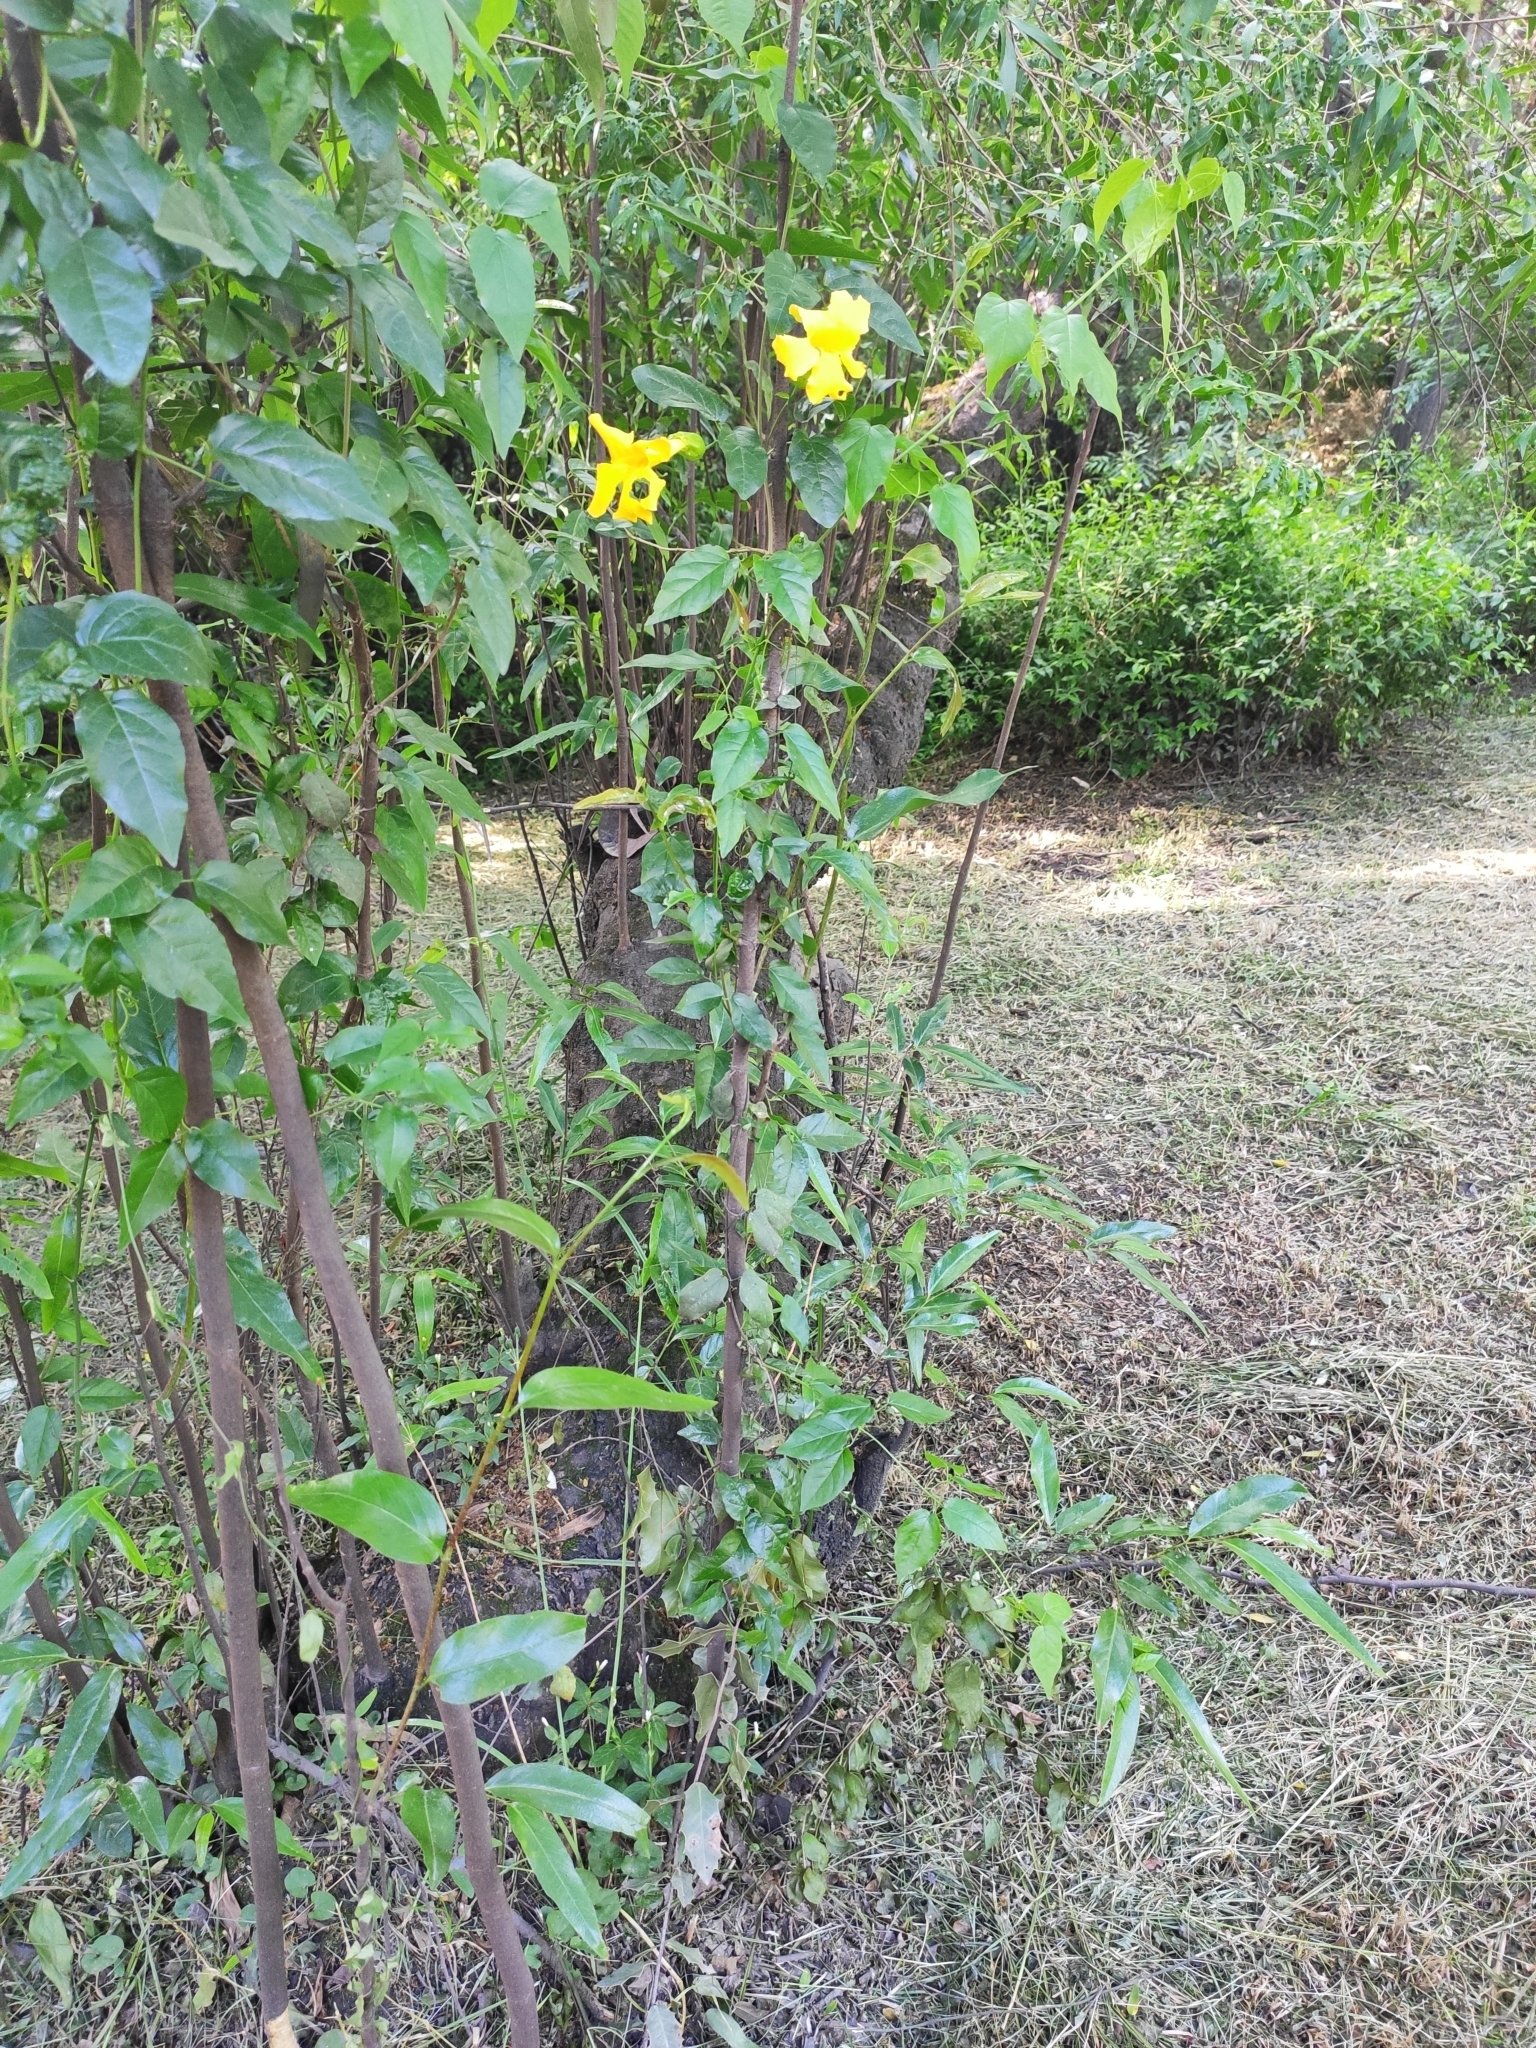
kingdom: Plantae
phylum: Tracheophyta
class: Magnoliopsida
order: Lamiales
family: Bignoniaceae
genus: Dolichandra
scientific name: Dolichandra unguis-cati
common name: Catclaw vine
